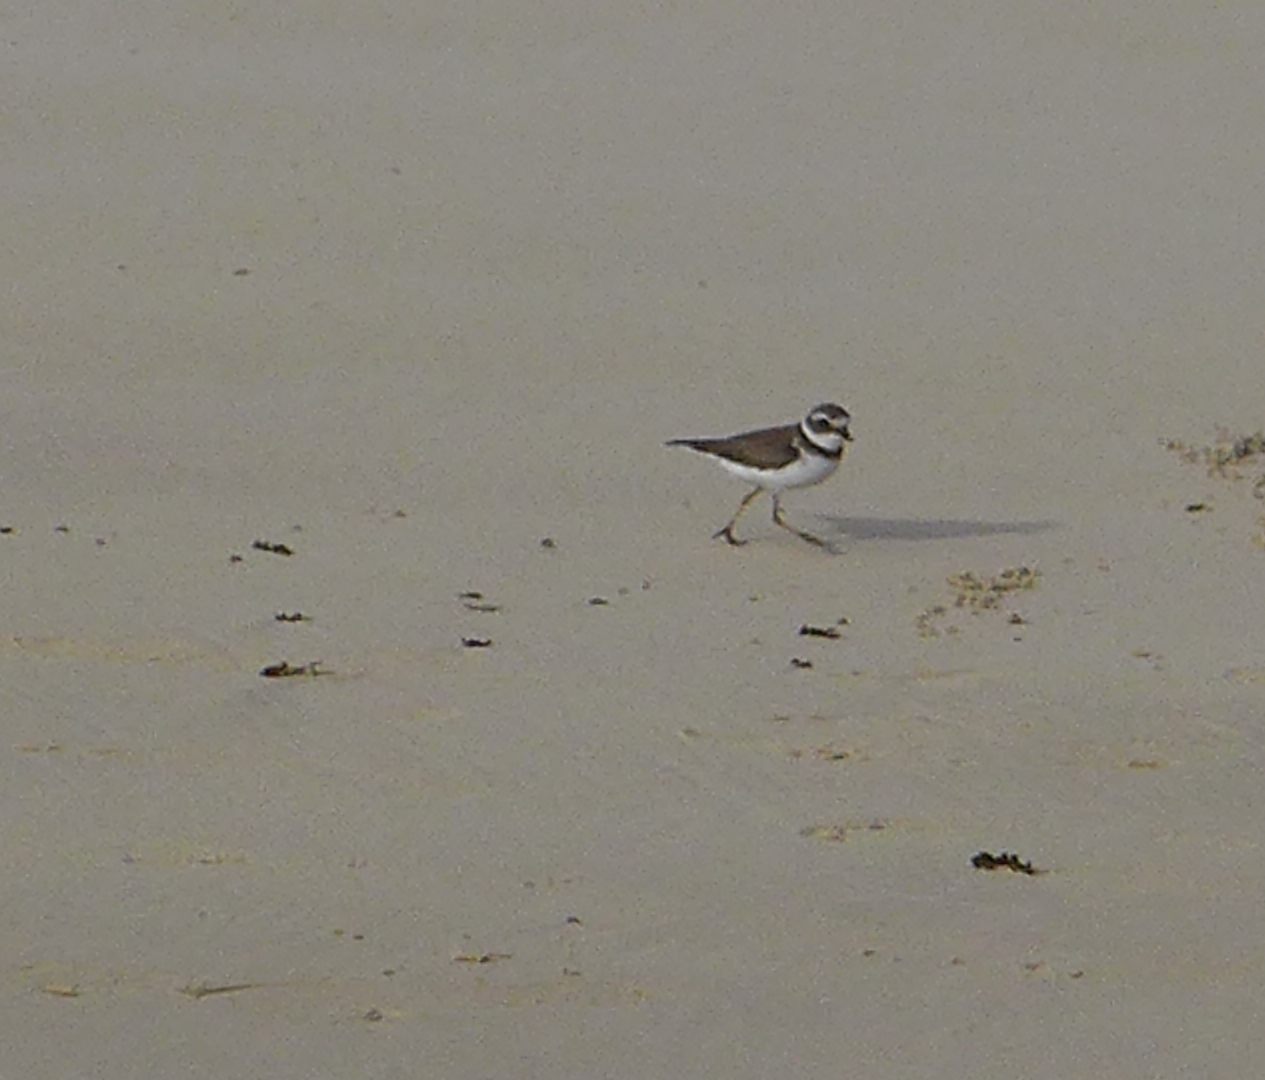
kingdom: Animalia
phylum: Chordata
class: Aves
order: Charadriiformes
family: Charadriidae
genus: Charadrius
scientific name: Charadrius semipalmatus
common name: Semipalmated plover
